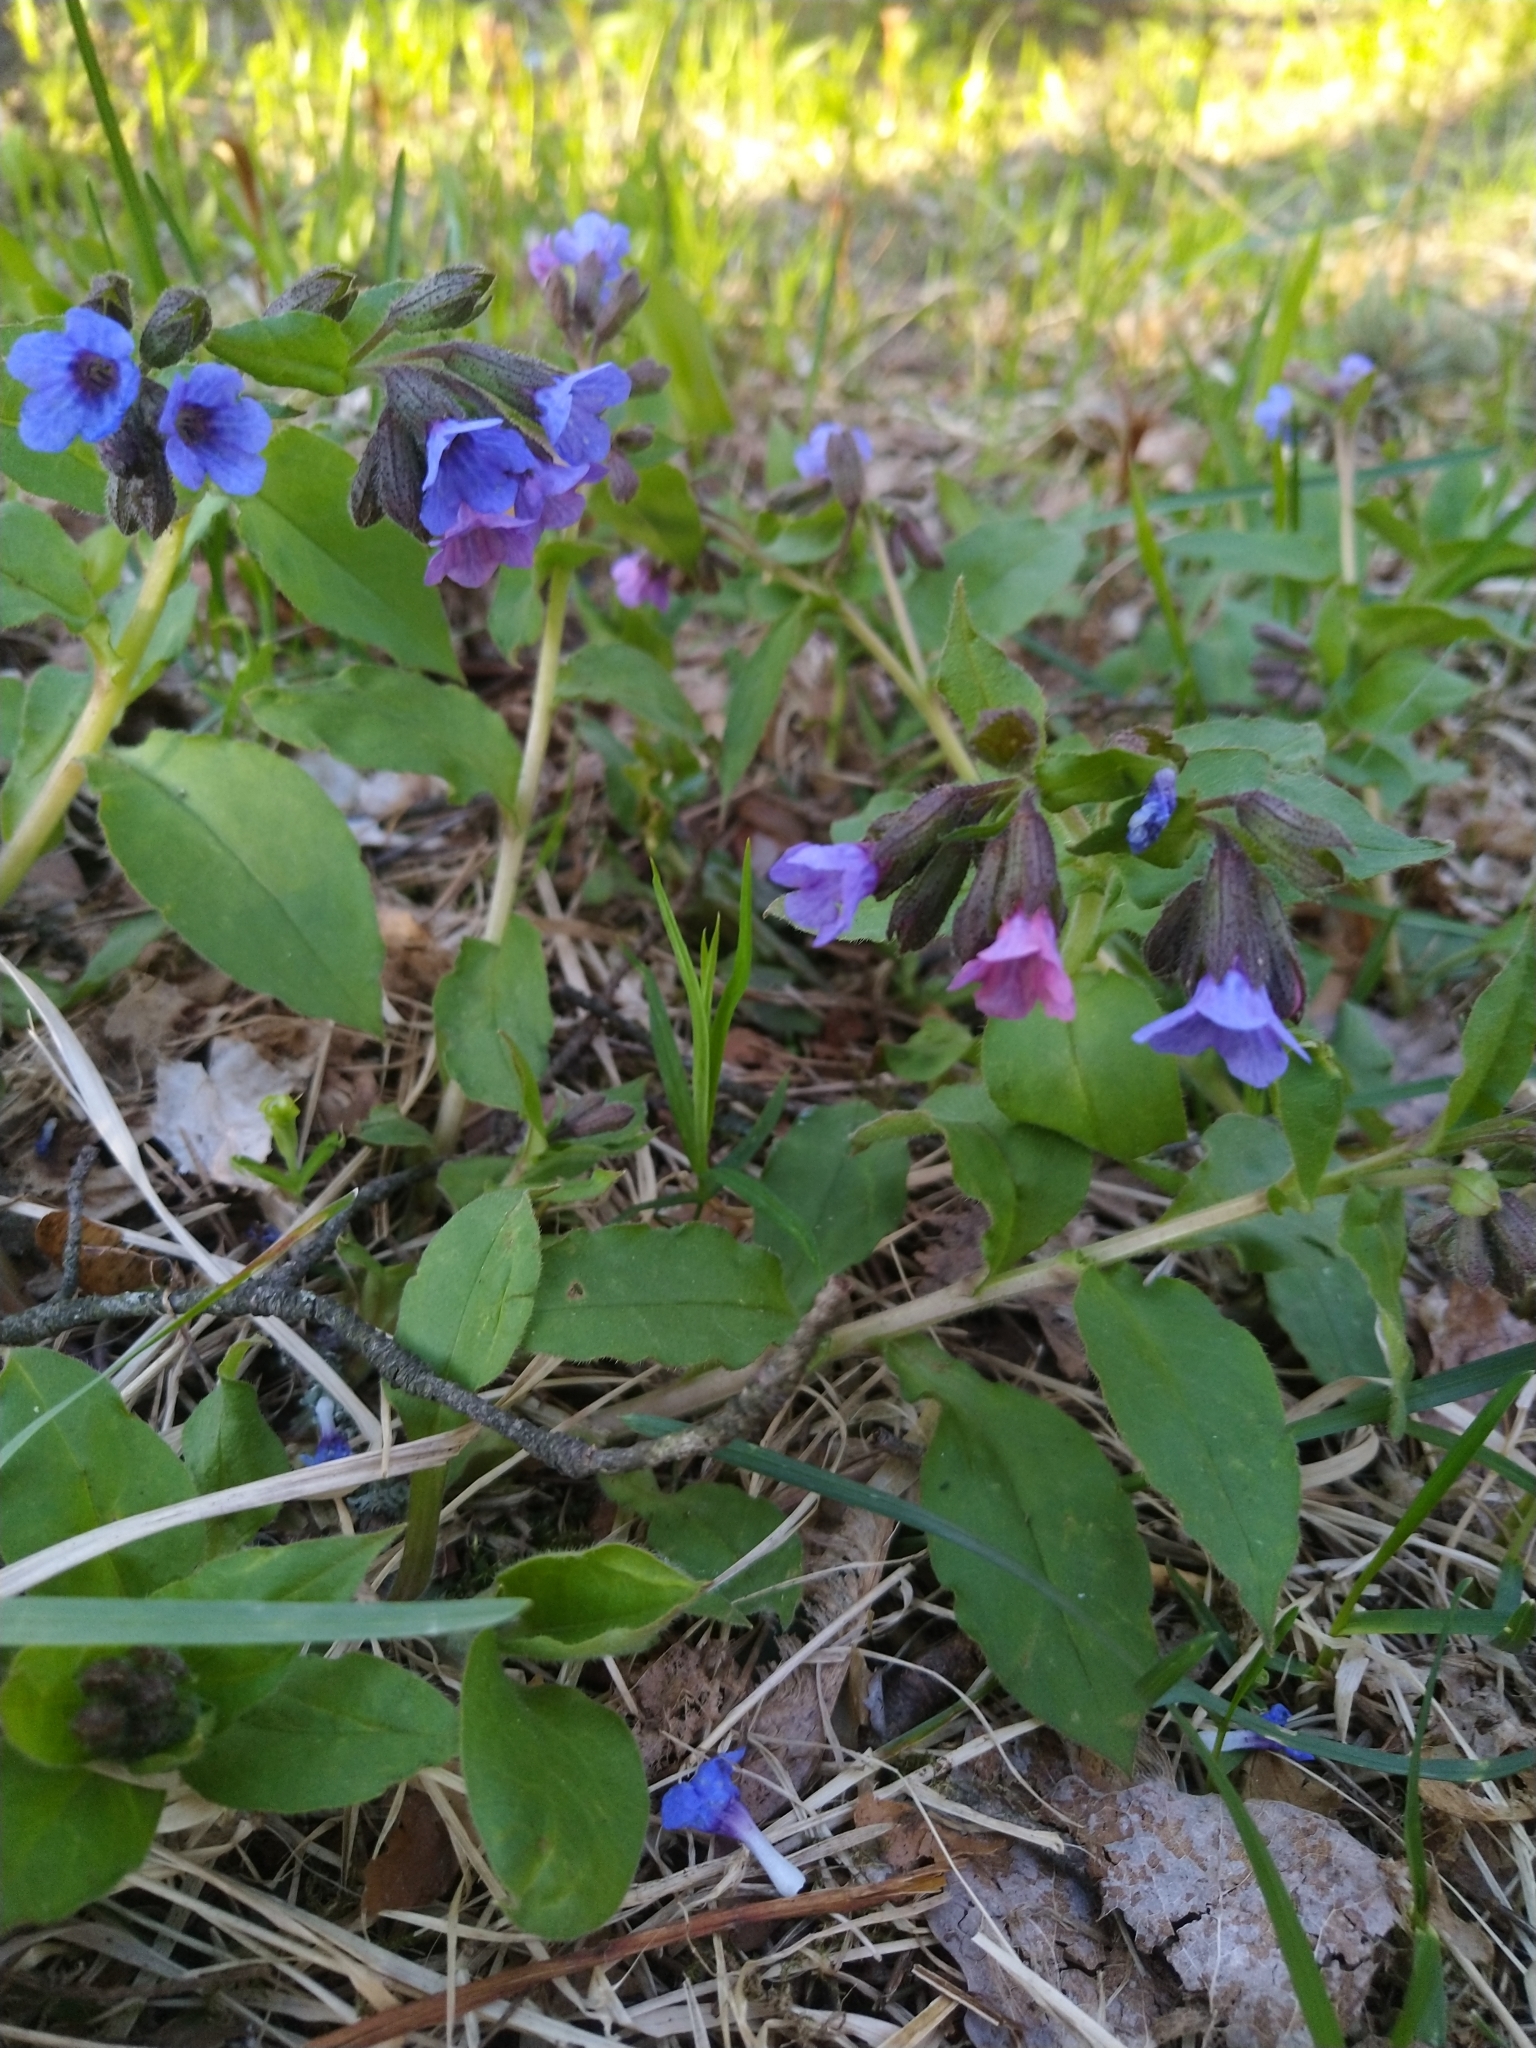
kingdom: Plantae
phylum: Tracheophyta
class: Magnoliopsida
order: Boraginales
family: Boraginaceae
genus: Pulmonaria
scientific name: Pulmonaria obscura
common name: Suffolk lungwort
